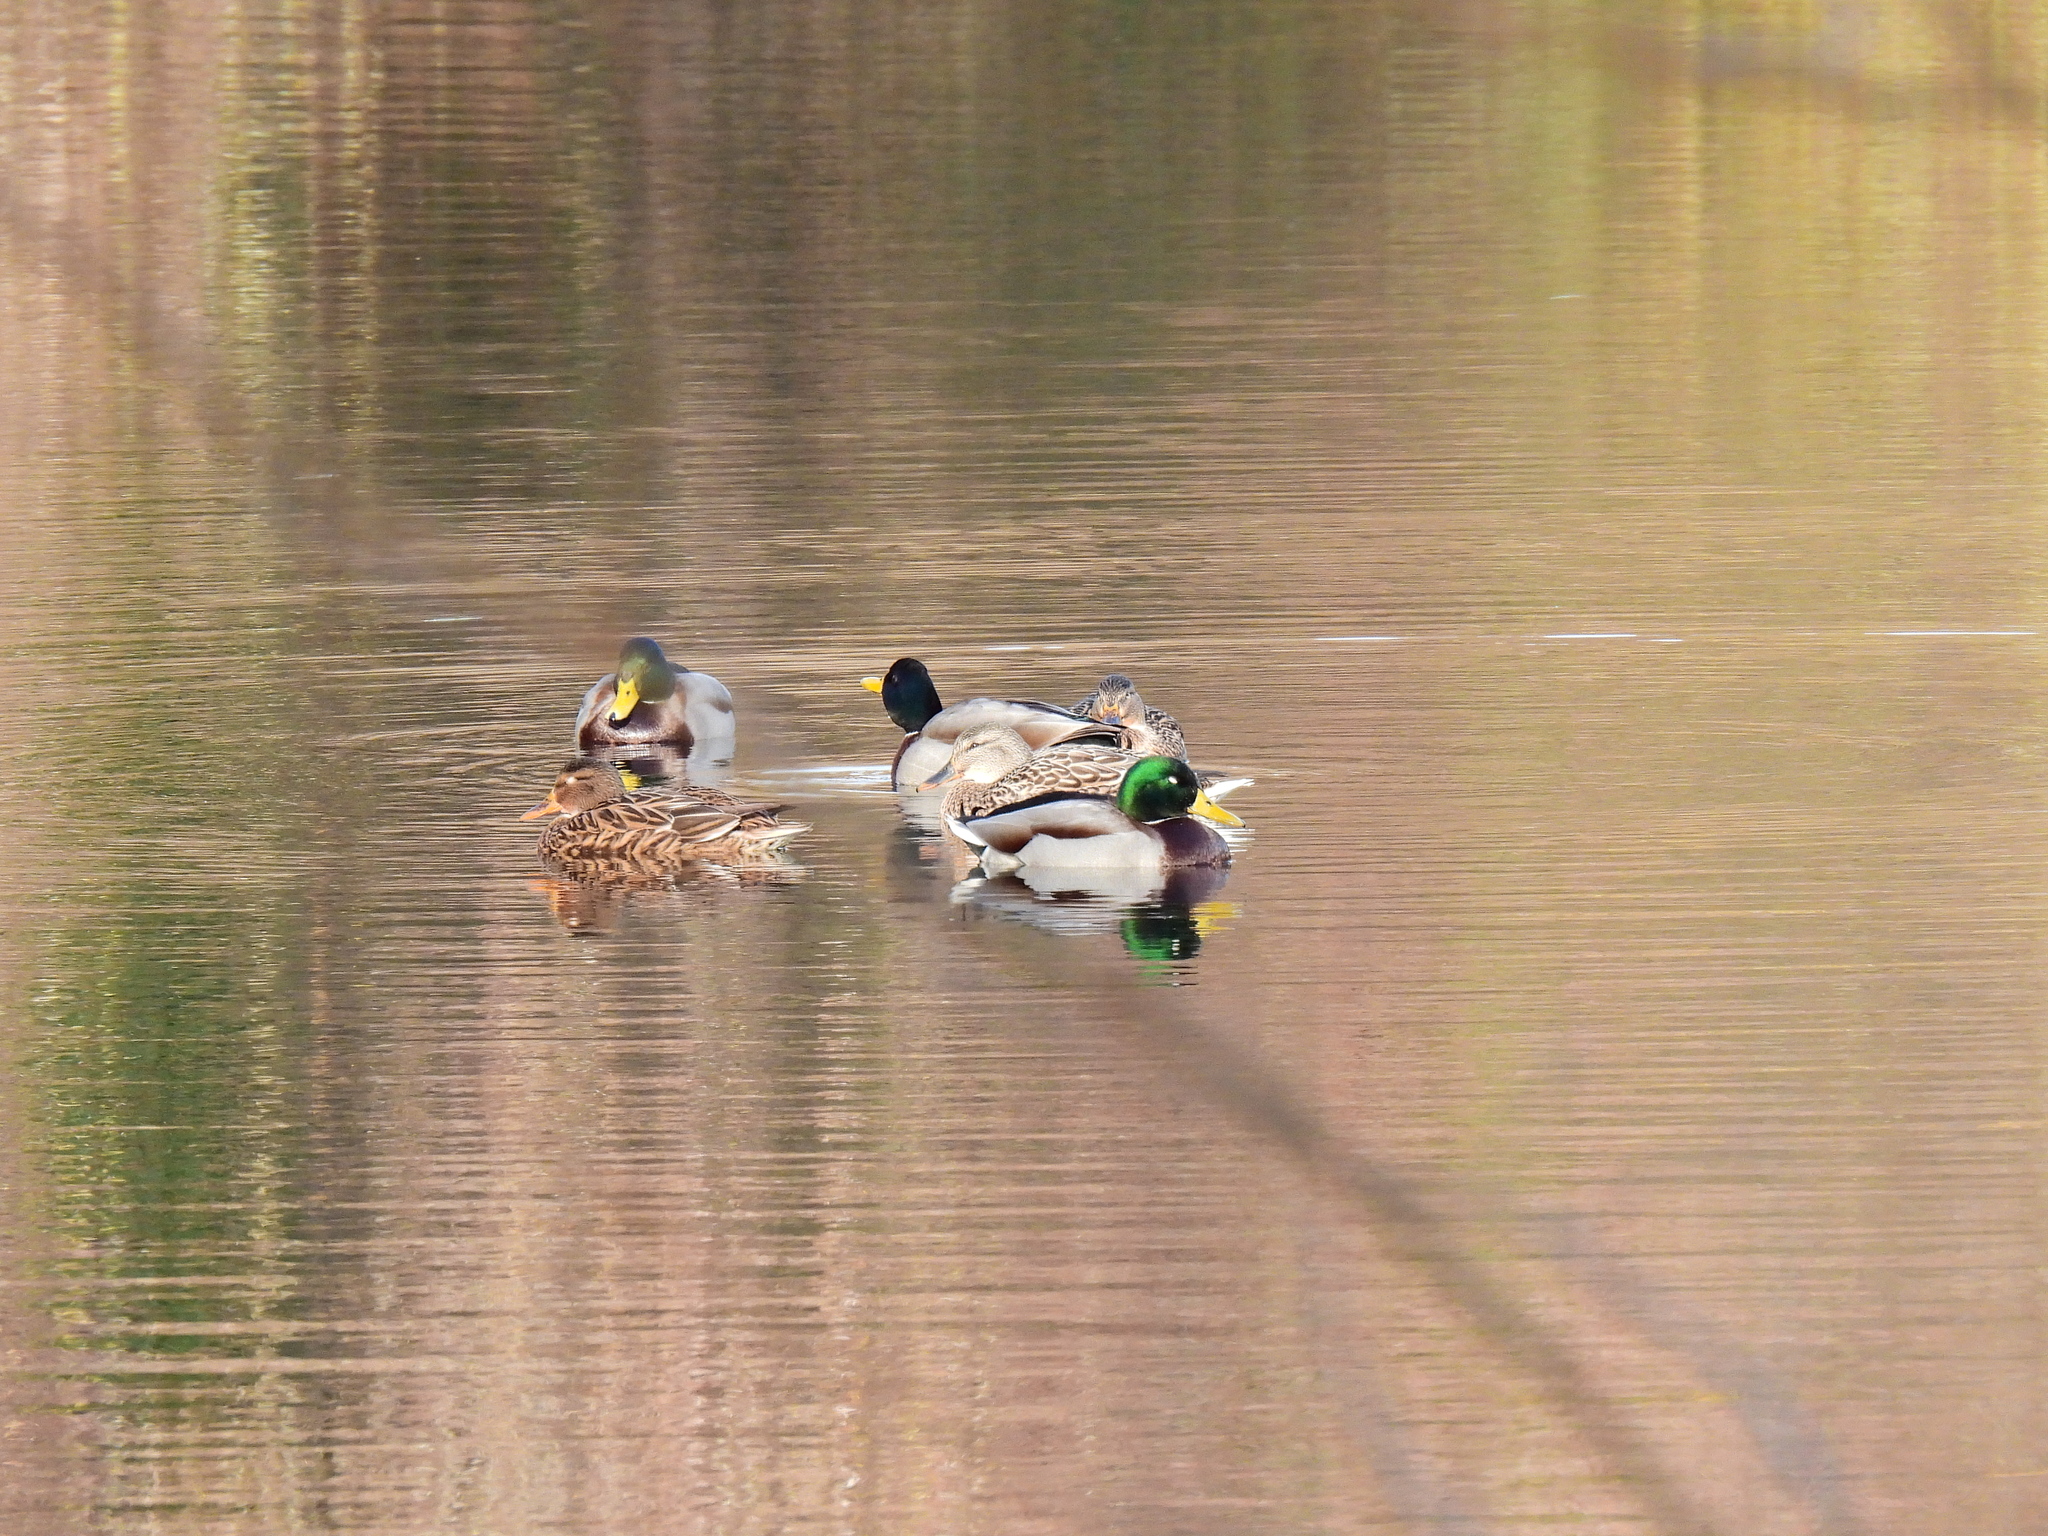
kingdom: Animalia
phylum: Chordata
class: Aves
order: Anseriformes
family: Anatidae
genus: Anas
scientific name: Anas platyrhynchos
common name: Mallard
